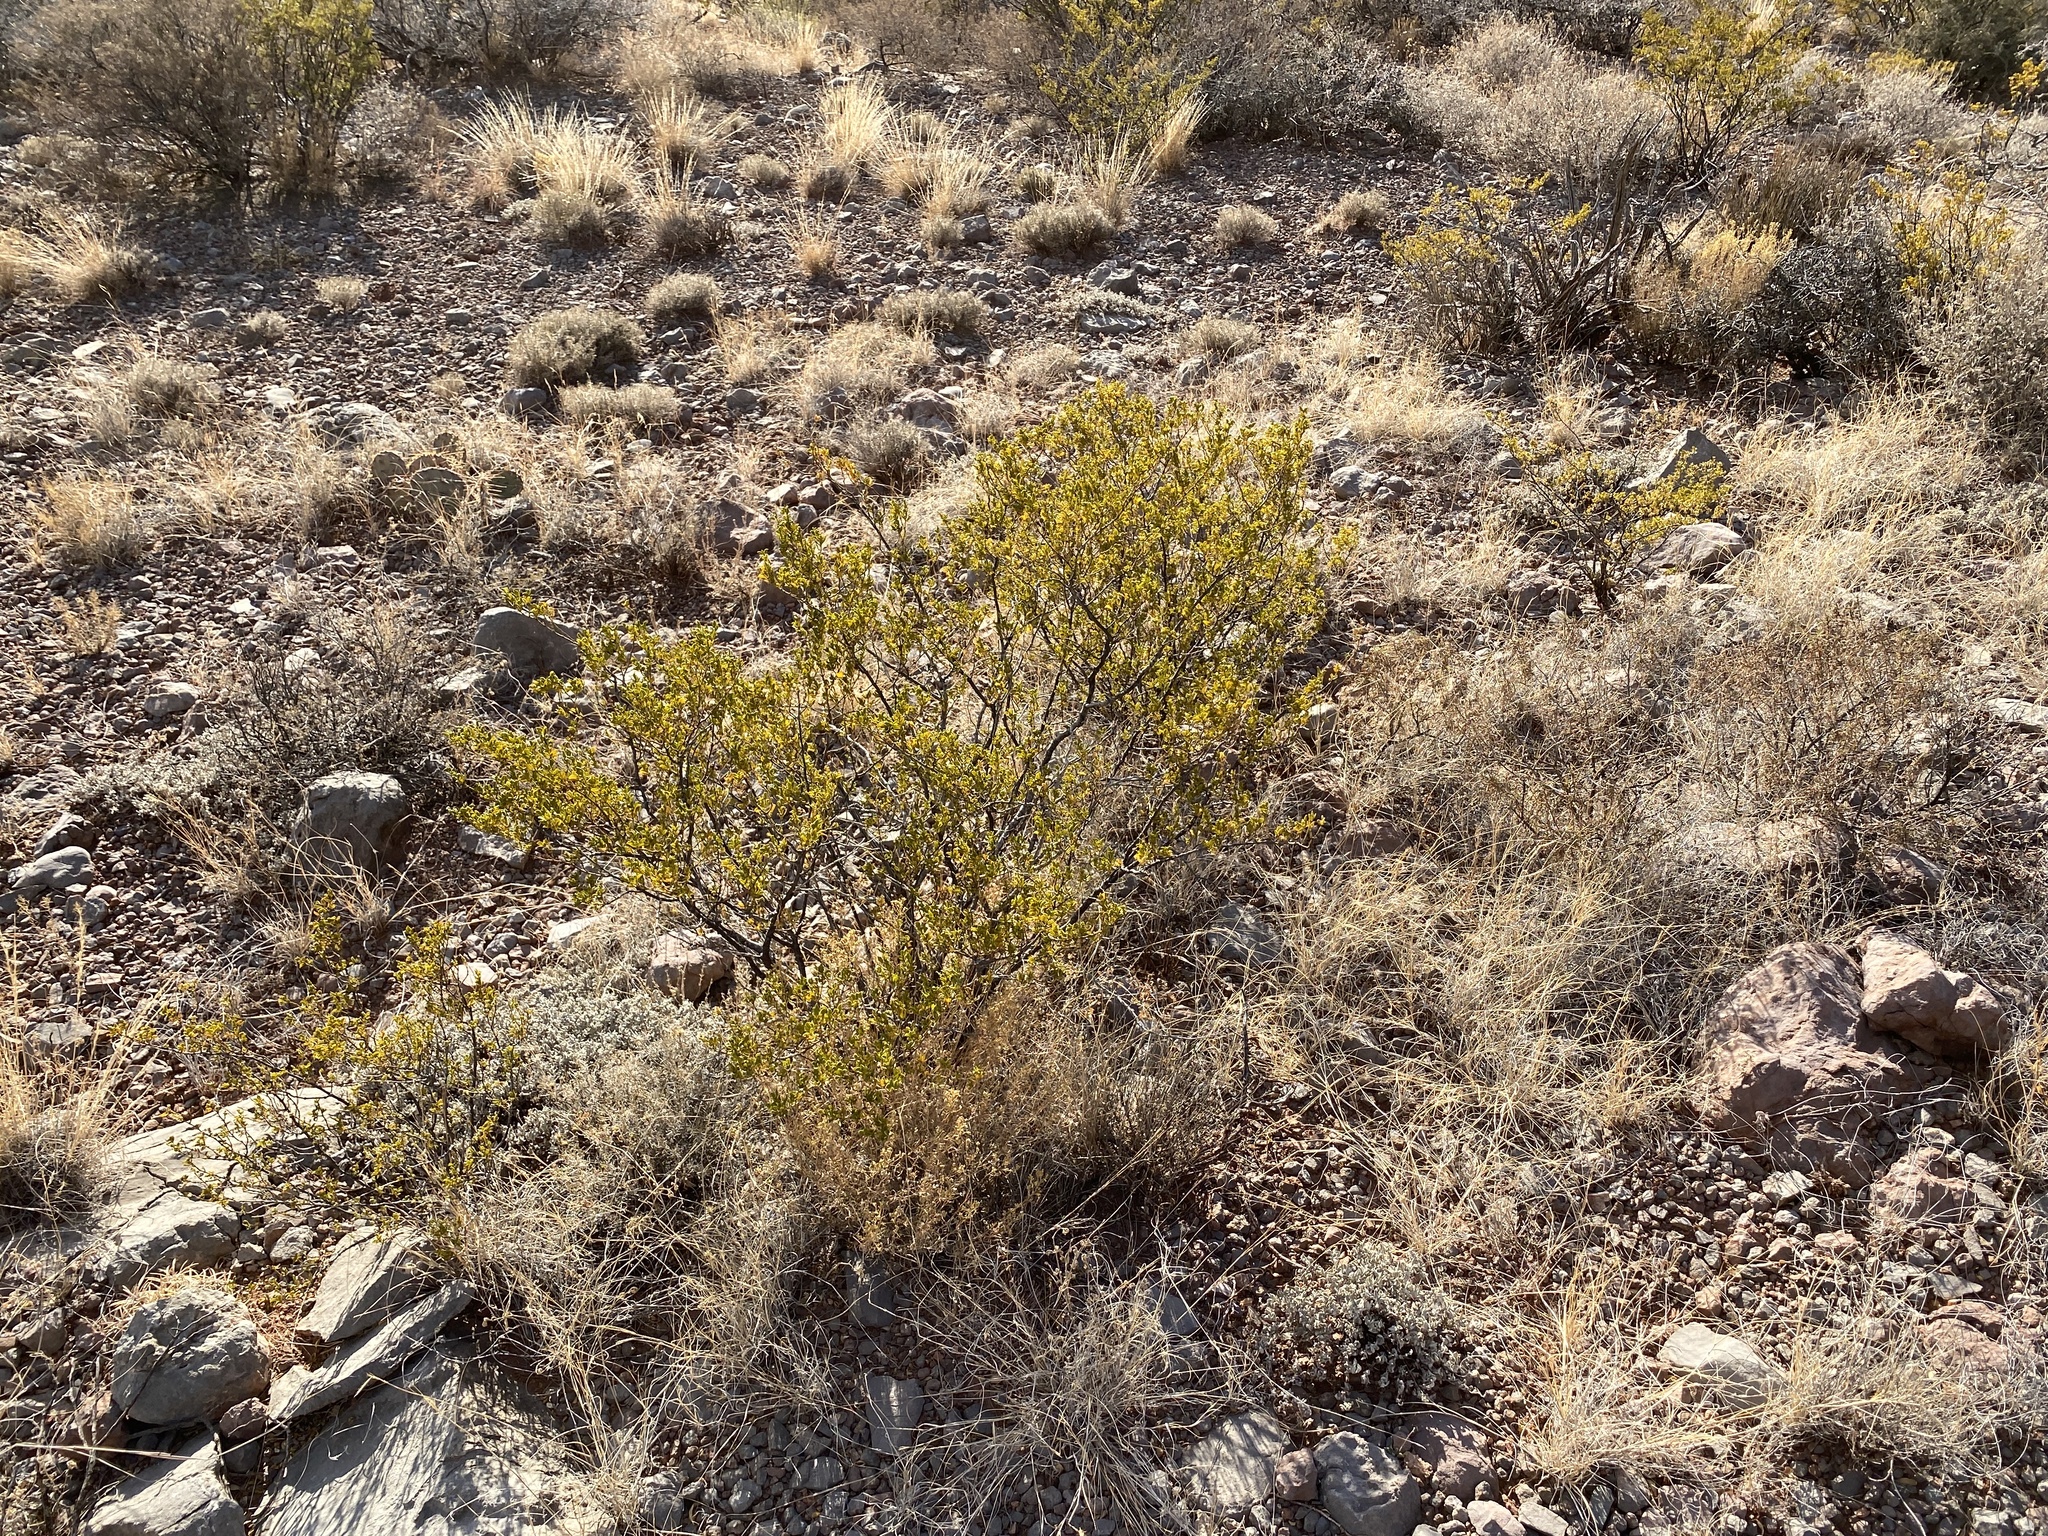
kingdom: Plantae
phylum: Tracheophyta
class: Magnoliopsida
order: Zygophyllales
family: Zygophyllaceae
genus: Larrea
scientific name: Larrea tridentata
